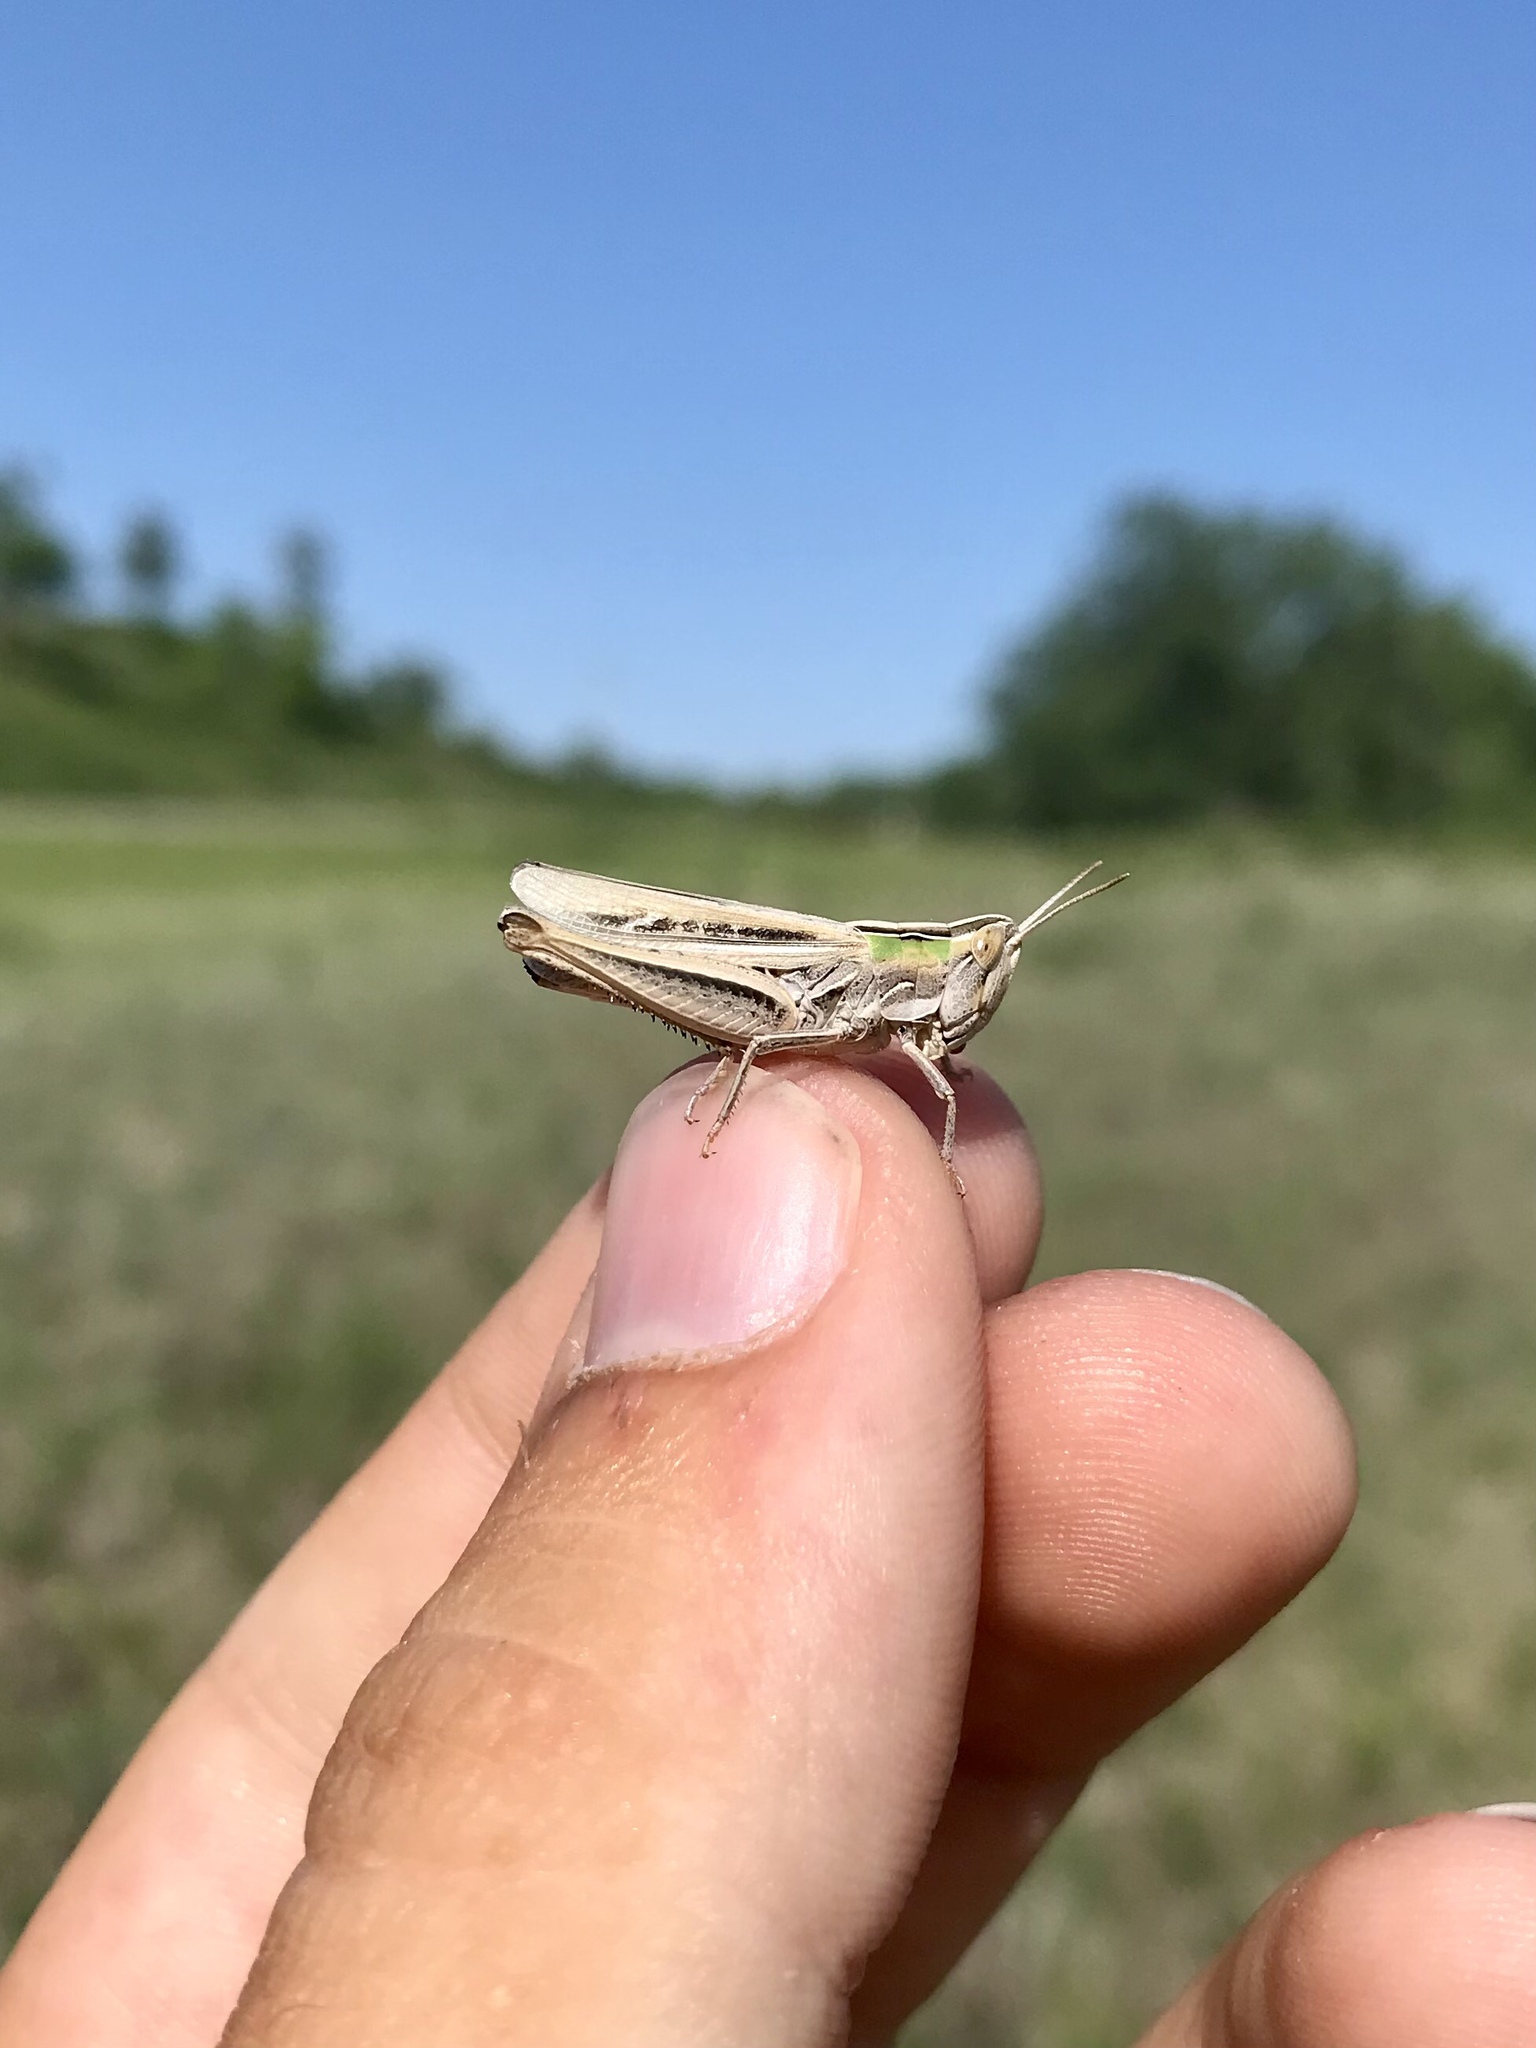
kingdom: Animalia
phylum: Arthropoda
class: Insecta
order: Orthoptera
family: Acrididae
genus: Eritettix
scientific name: Eritettix simplex
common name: Velvet-striped grasshopper
